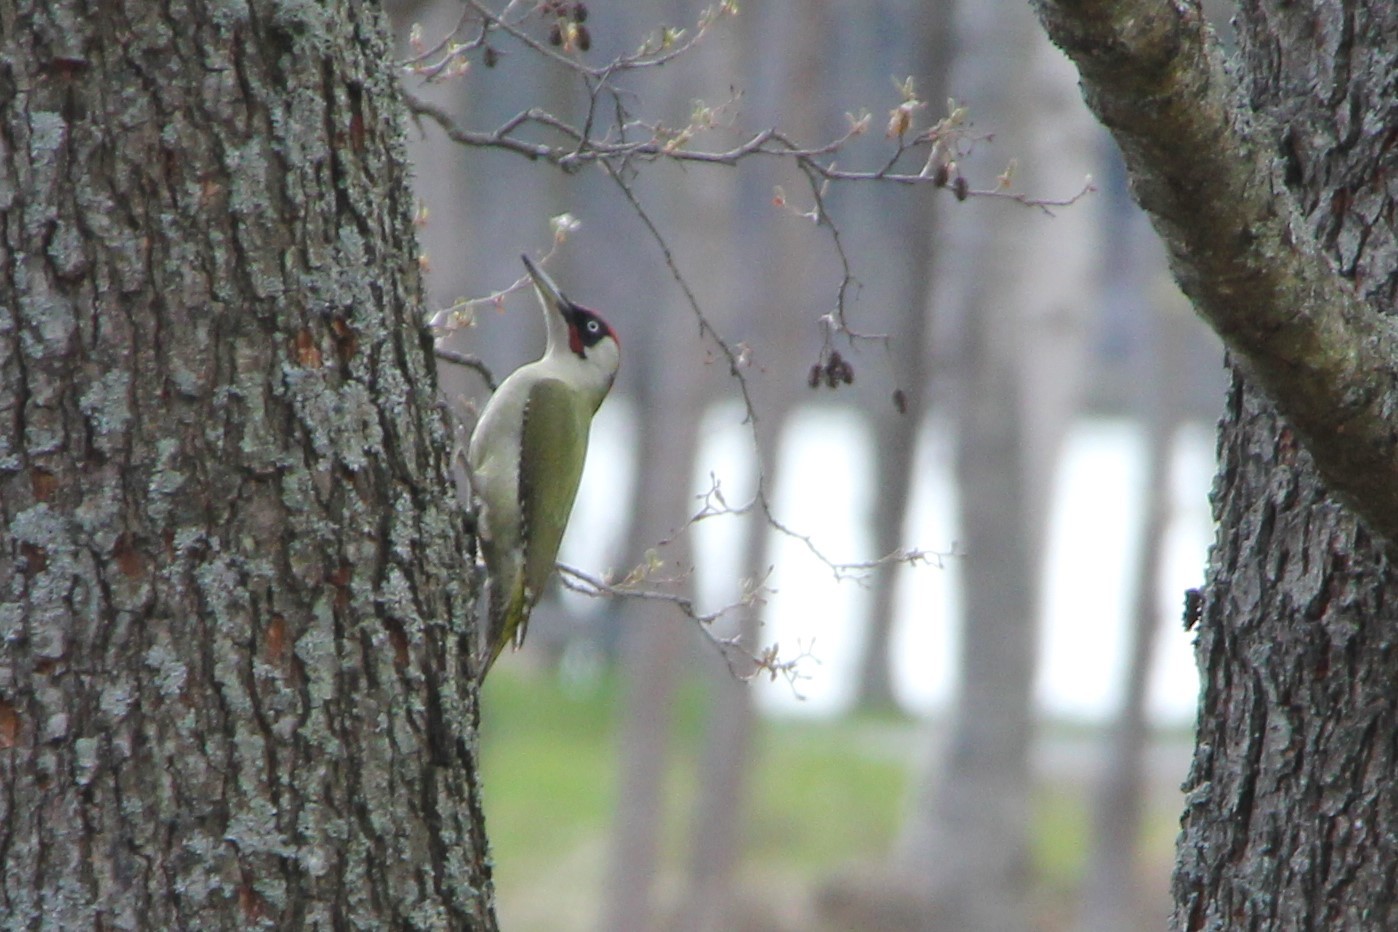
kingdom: Animalia
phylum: Chordata
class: Aves
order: Piciformes
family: Picidae
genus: Picus
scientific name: Picus viridis
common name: European green woodpecker
